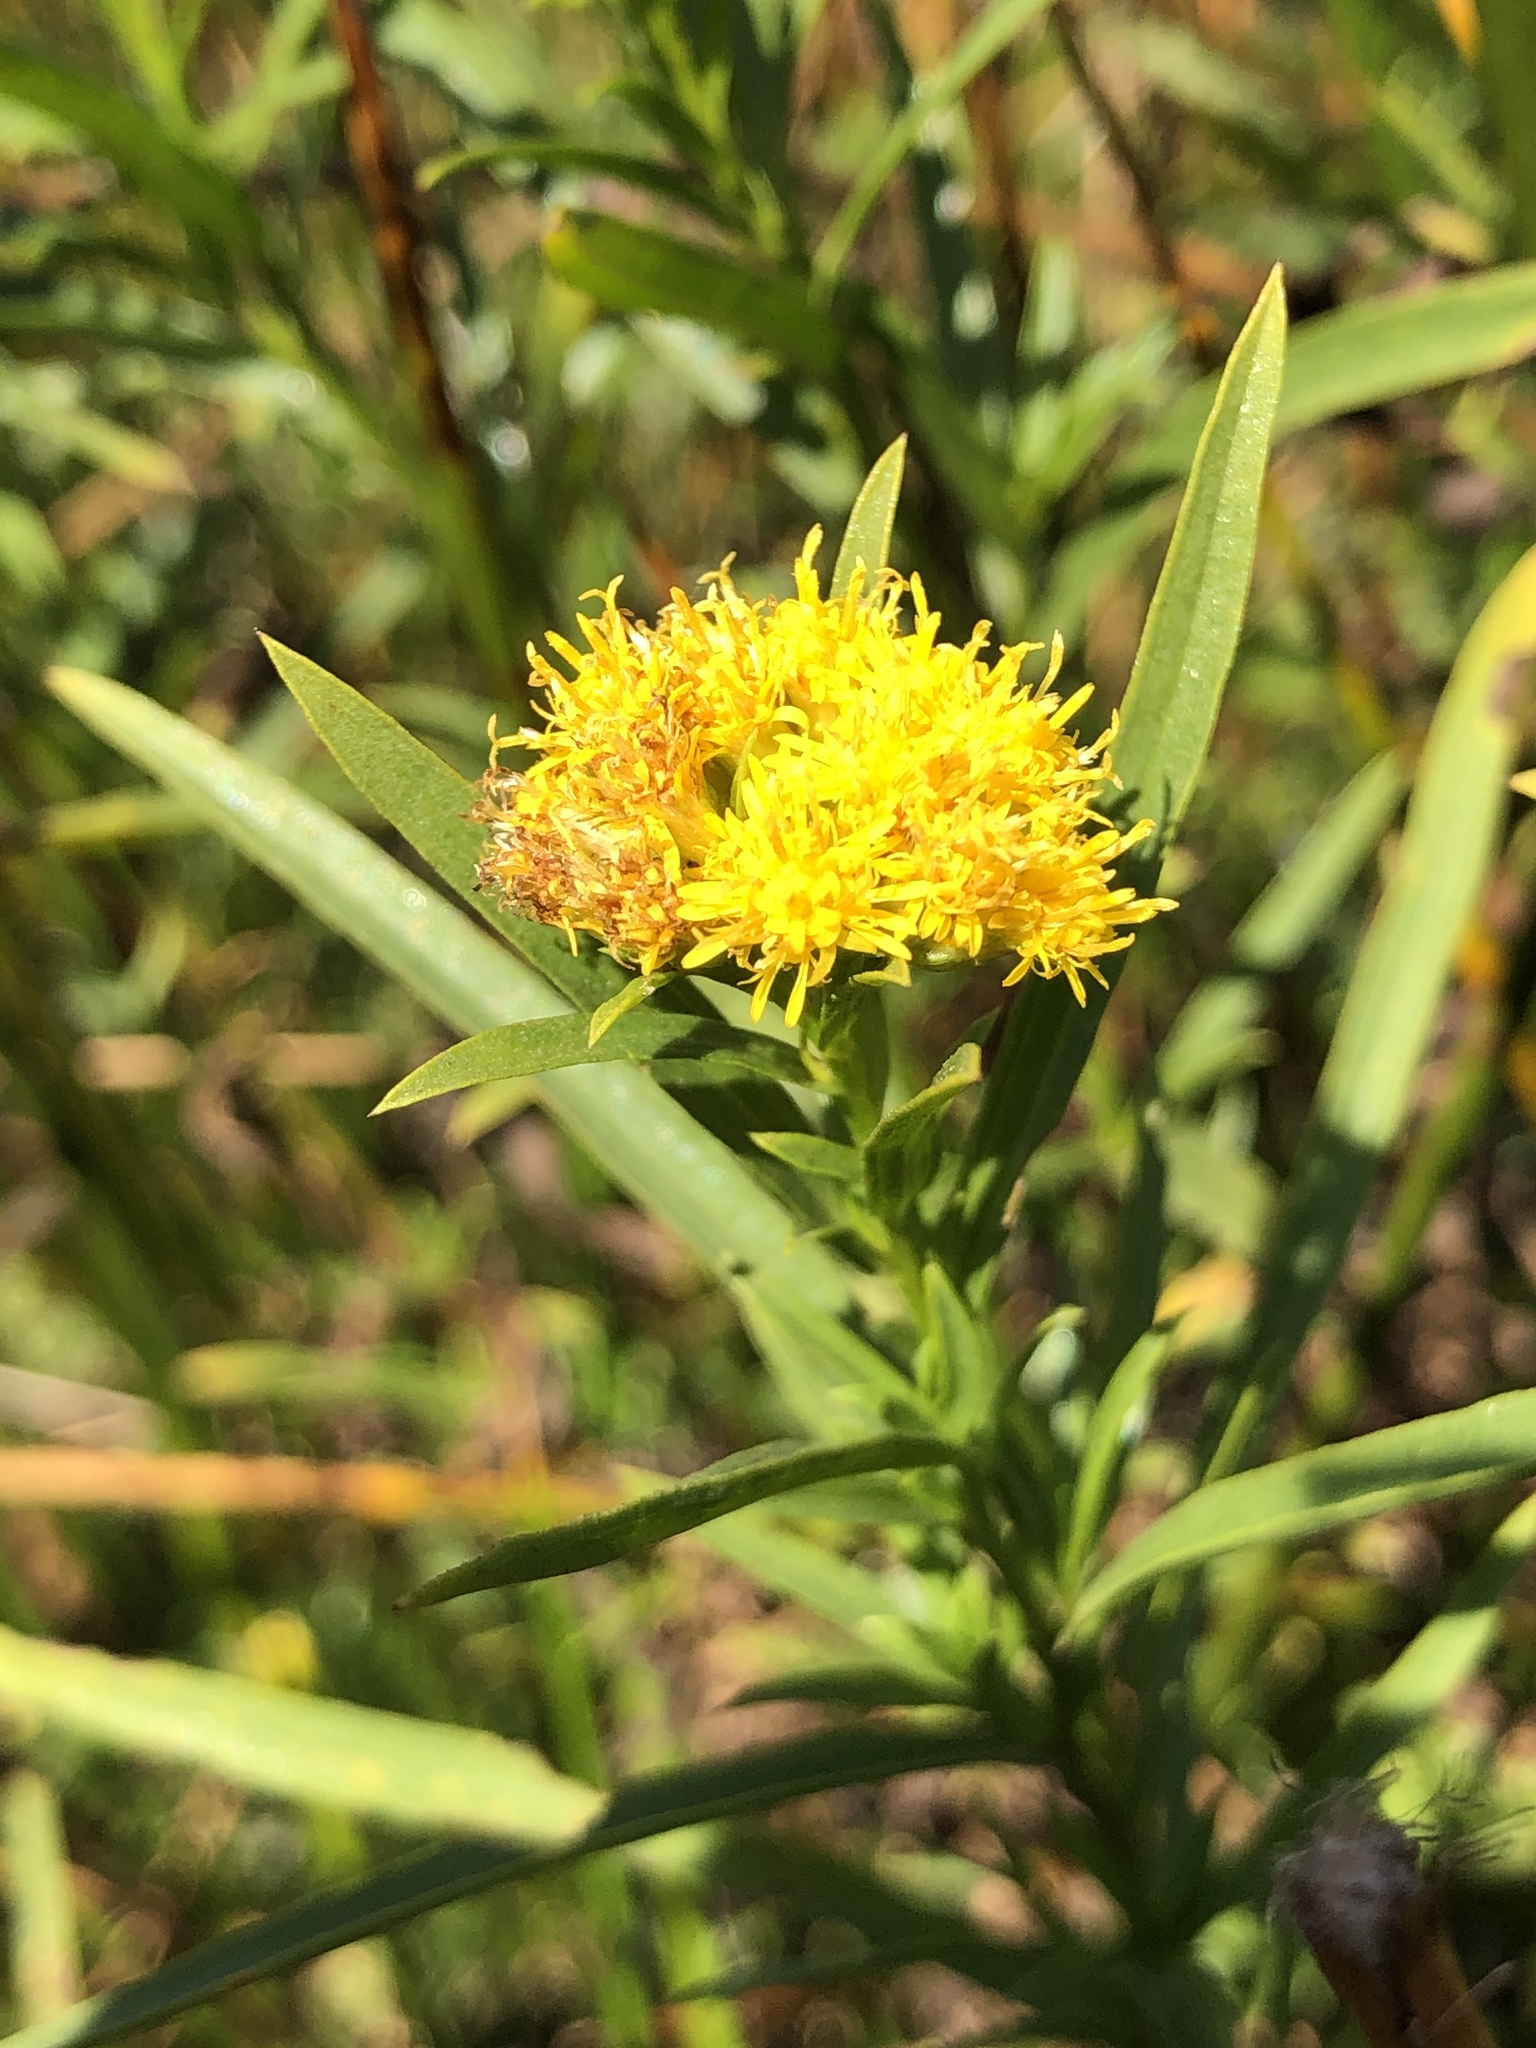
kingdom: Plantae
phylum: Tracheophyta
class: Magnoliopsida
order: Asterales
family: Asteraceae
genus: Euthamia
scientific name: Euthamia occidentalis
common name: Western goldentop
